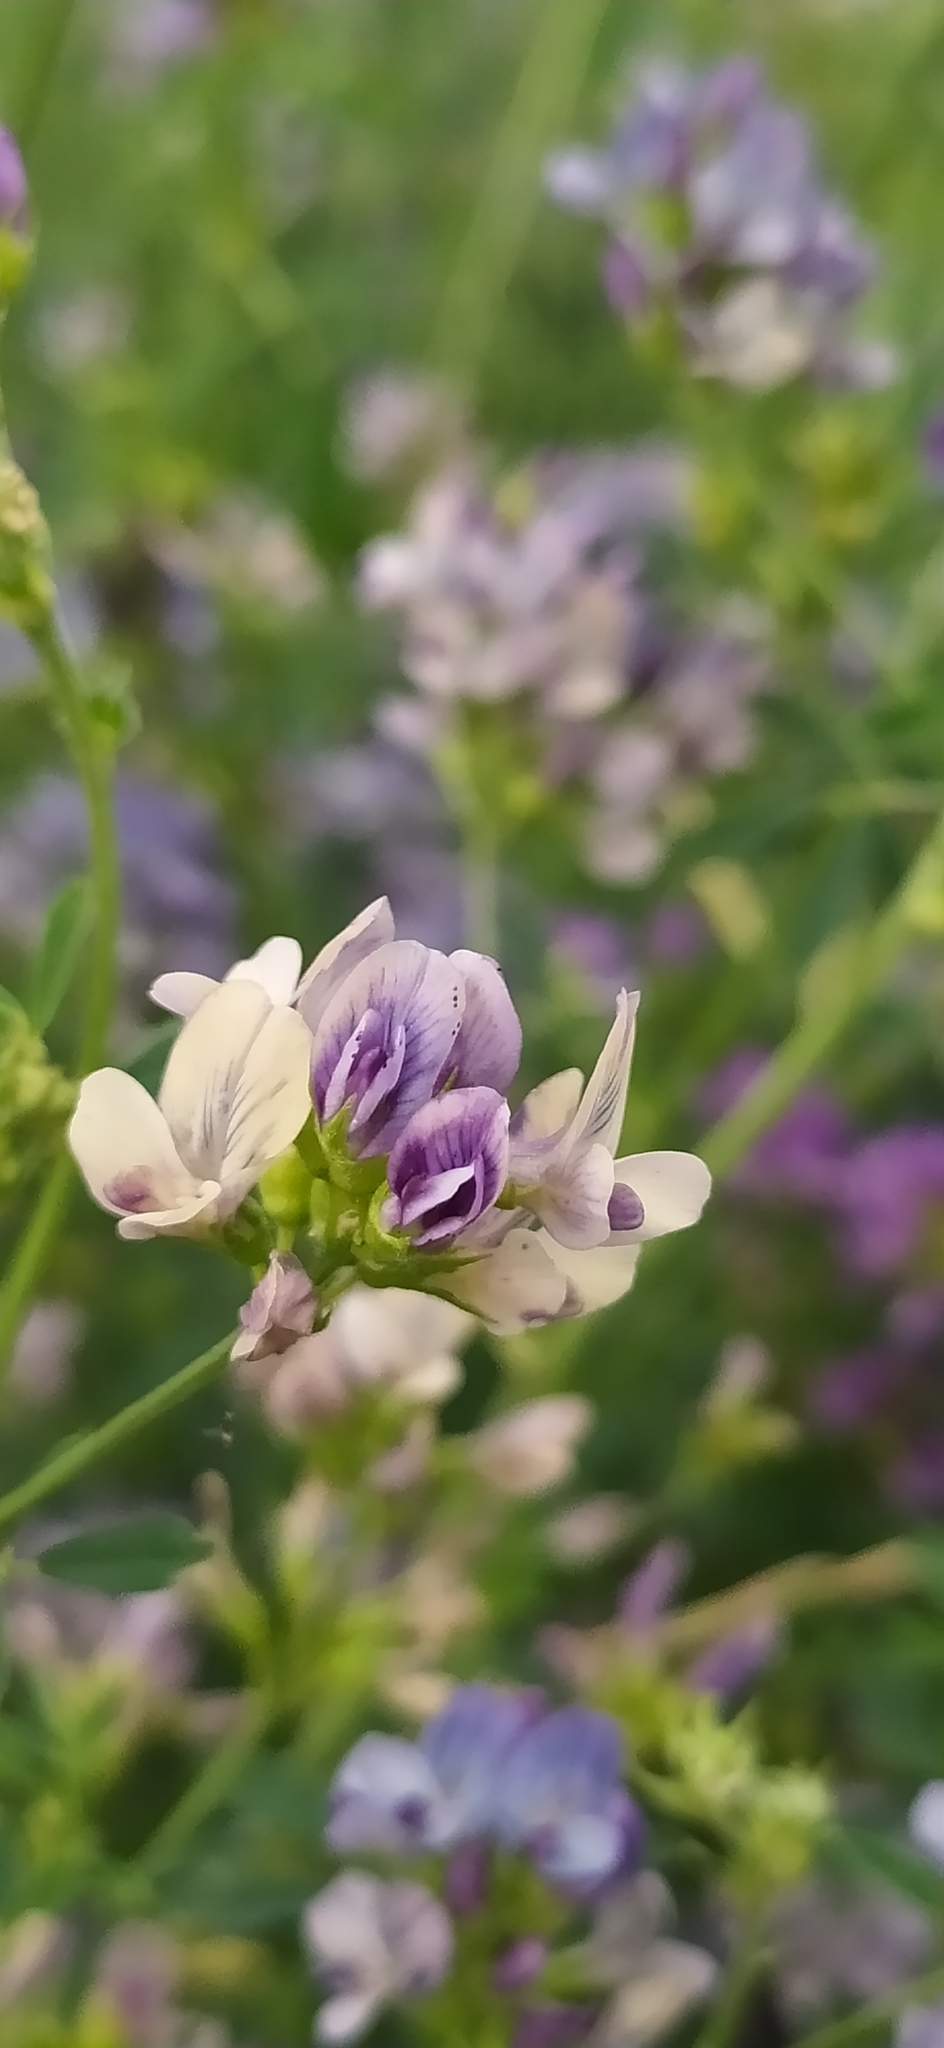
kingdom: Plantae
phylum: Tracheophyta
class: Magnoliopsida
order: Fabales
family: Fabaceae
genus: Medicago
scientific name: Medicago sativa
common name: Alfalfa
